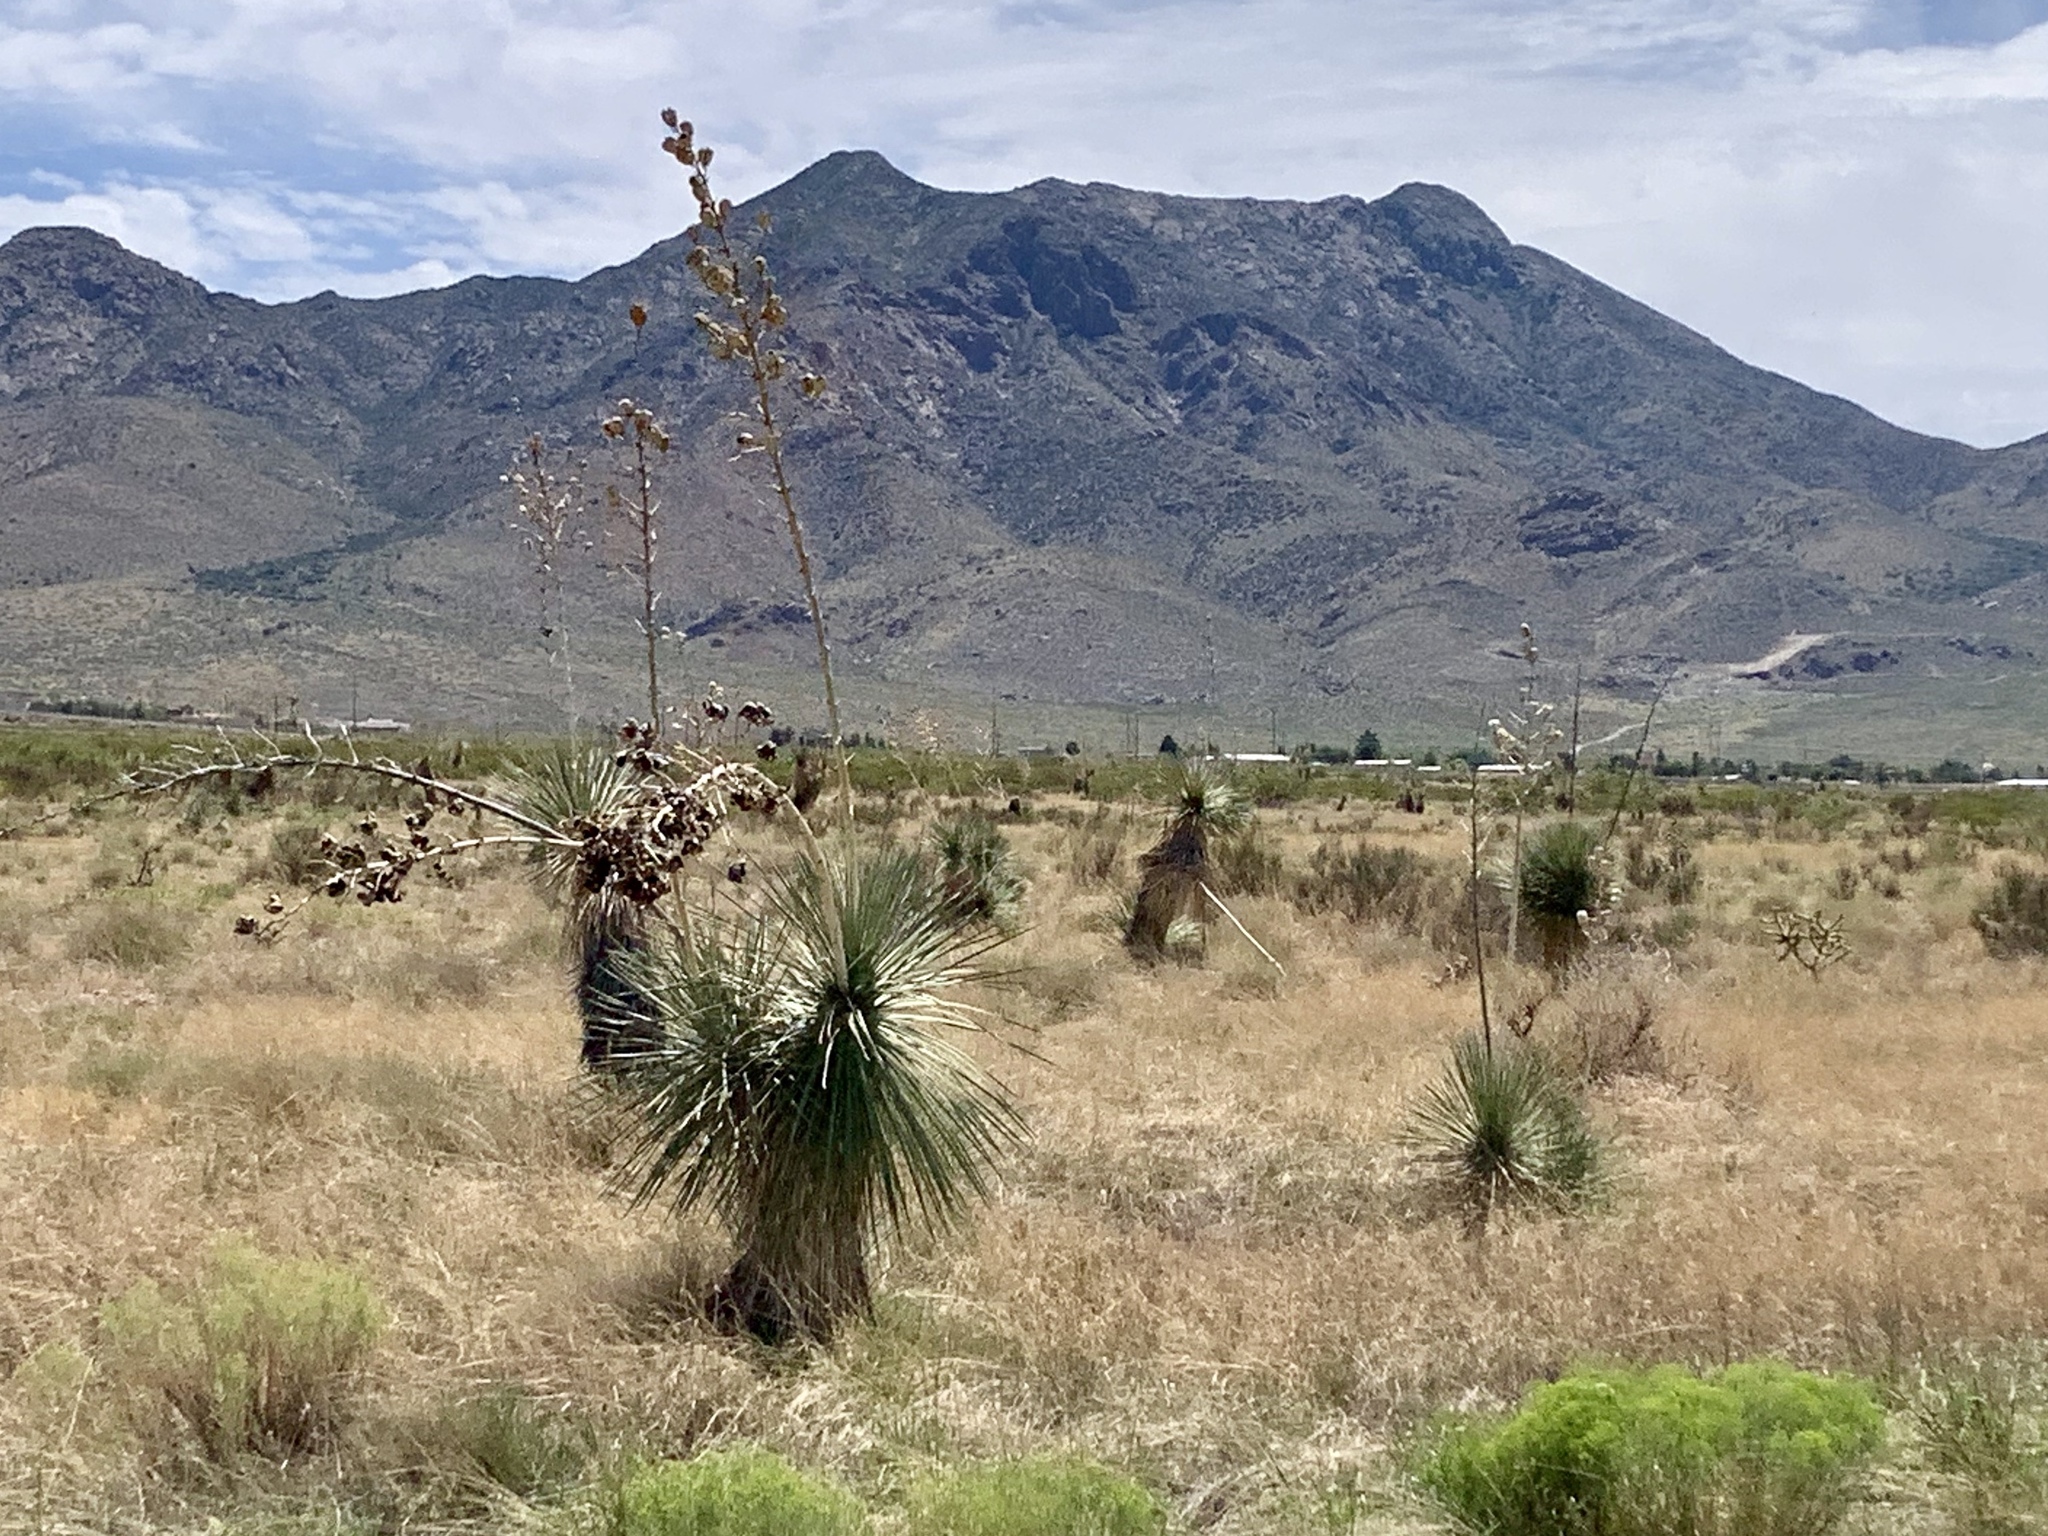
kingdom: Plantae
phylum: Tracheophyta
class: Liliopsida
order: Asparagales
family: Asparagaceae
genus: Yucca
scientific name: Yucca elata
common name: Palmella
